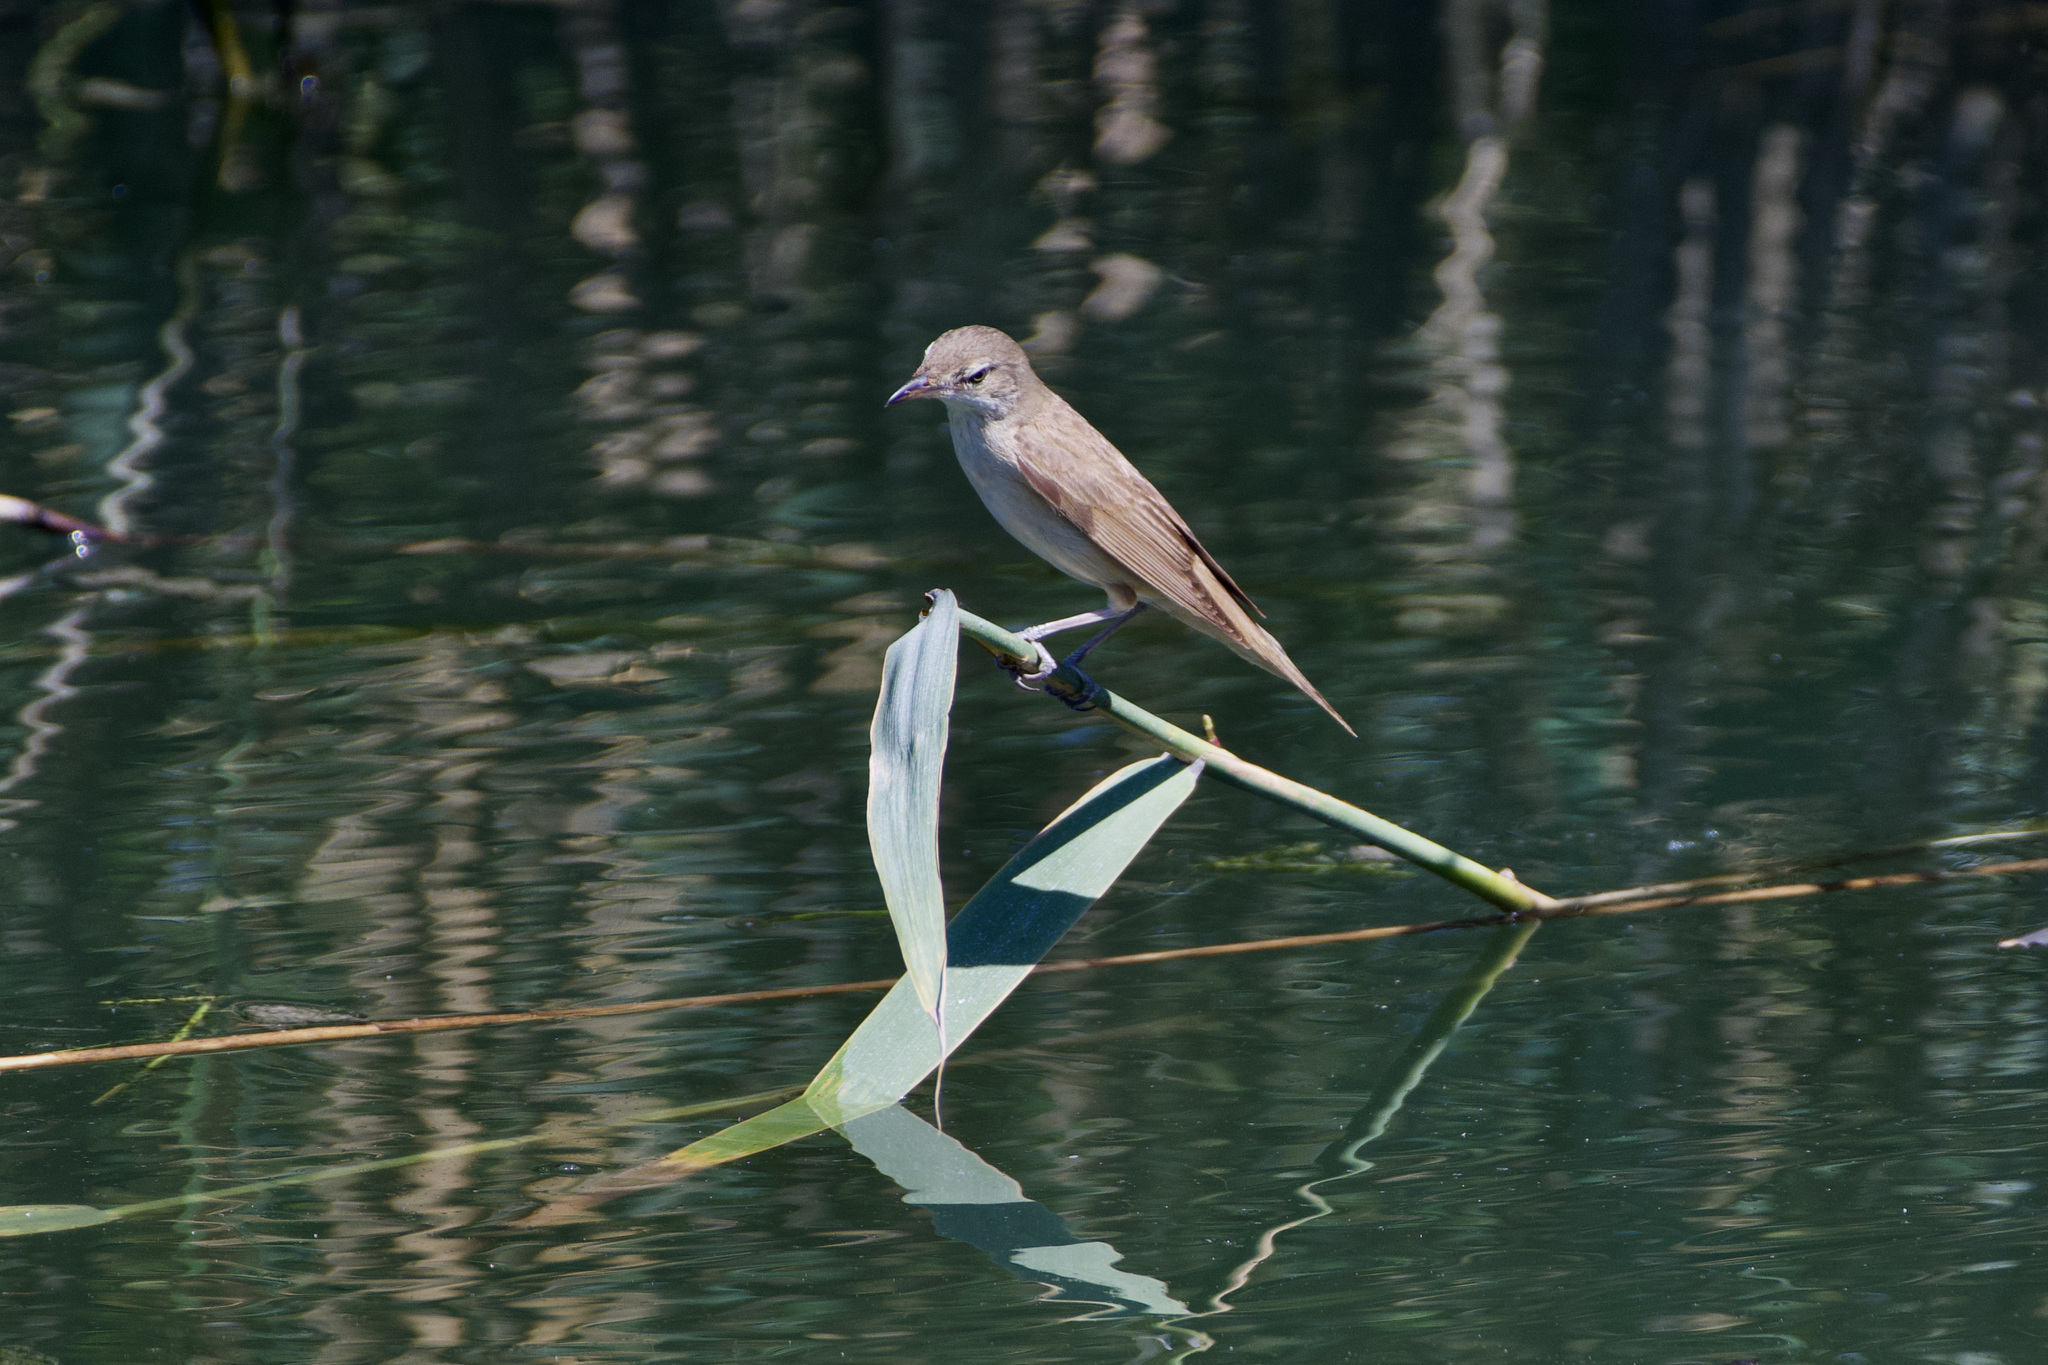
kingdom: Animalia
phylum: Chordata
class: Aves
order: Passeriformes
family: Acrocephalidae
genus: Acrocephalus
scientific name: Acrocephalus arundinaceus
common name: Great reed warbler
